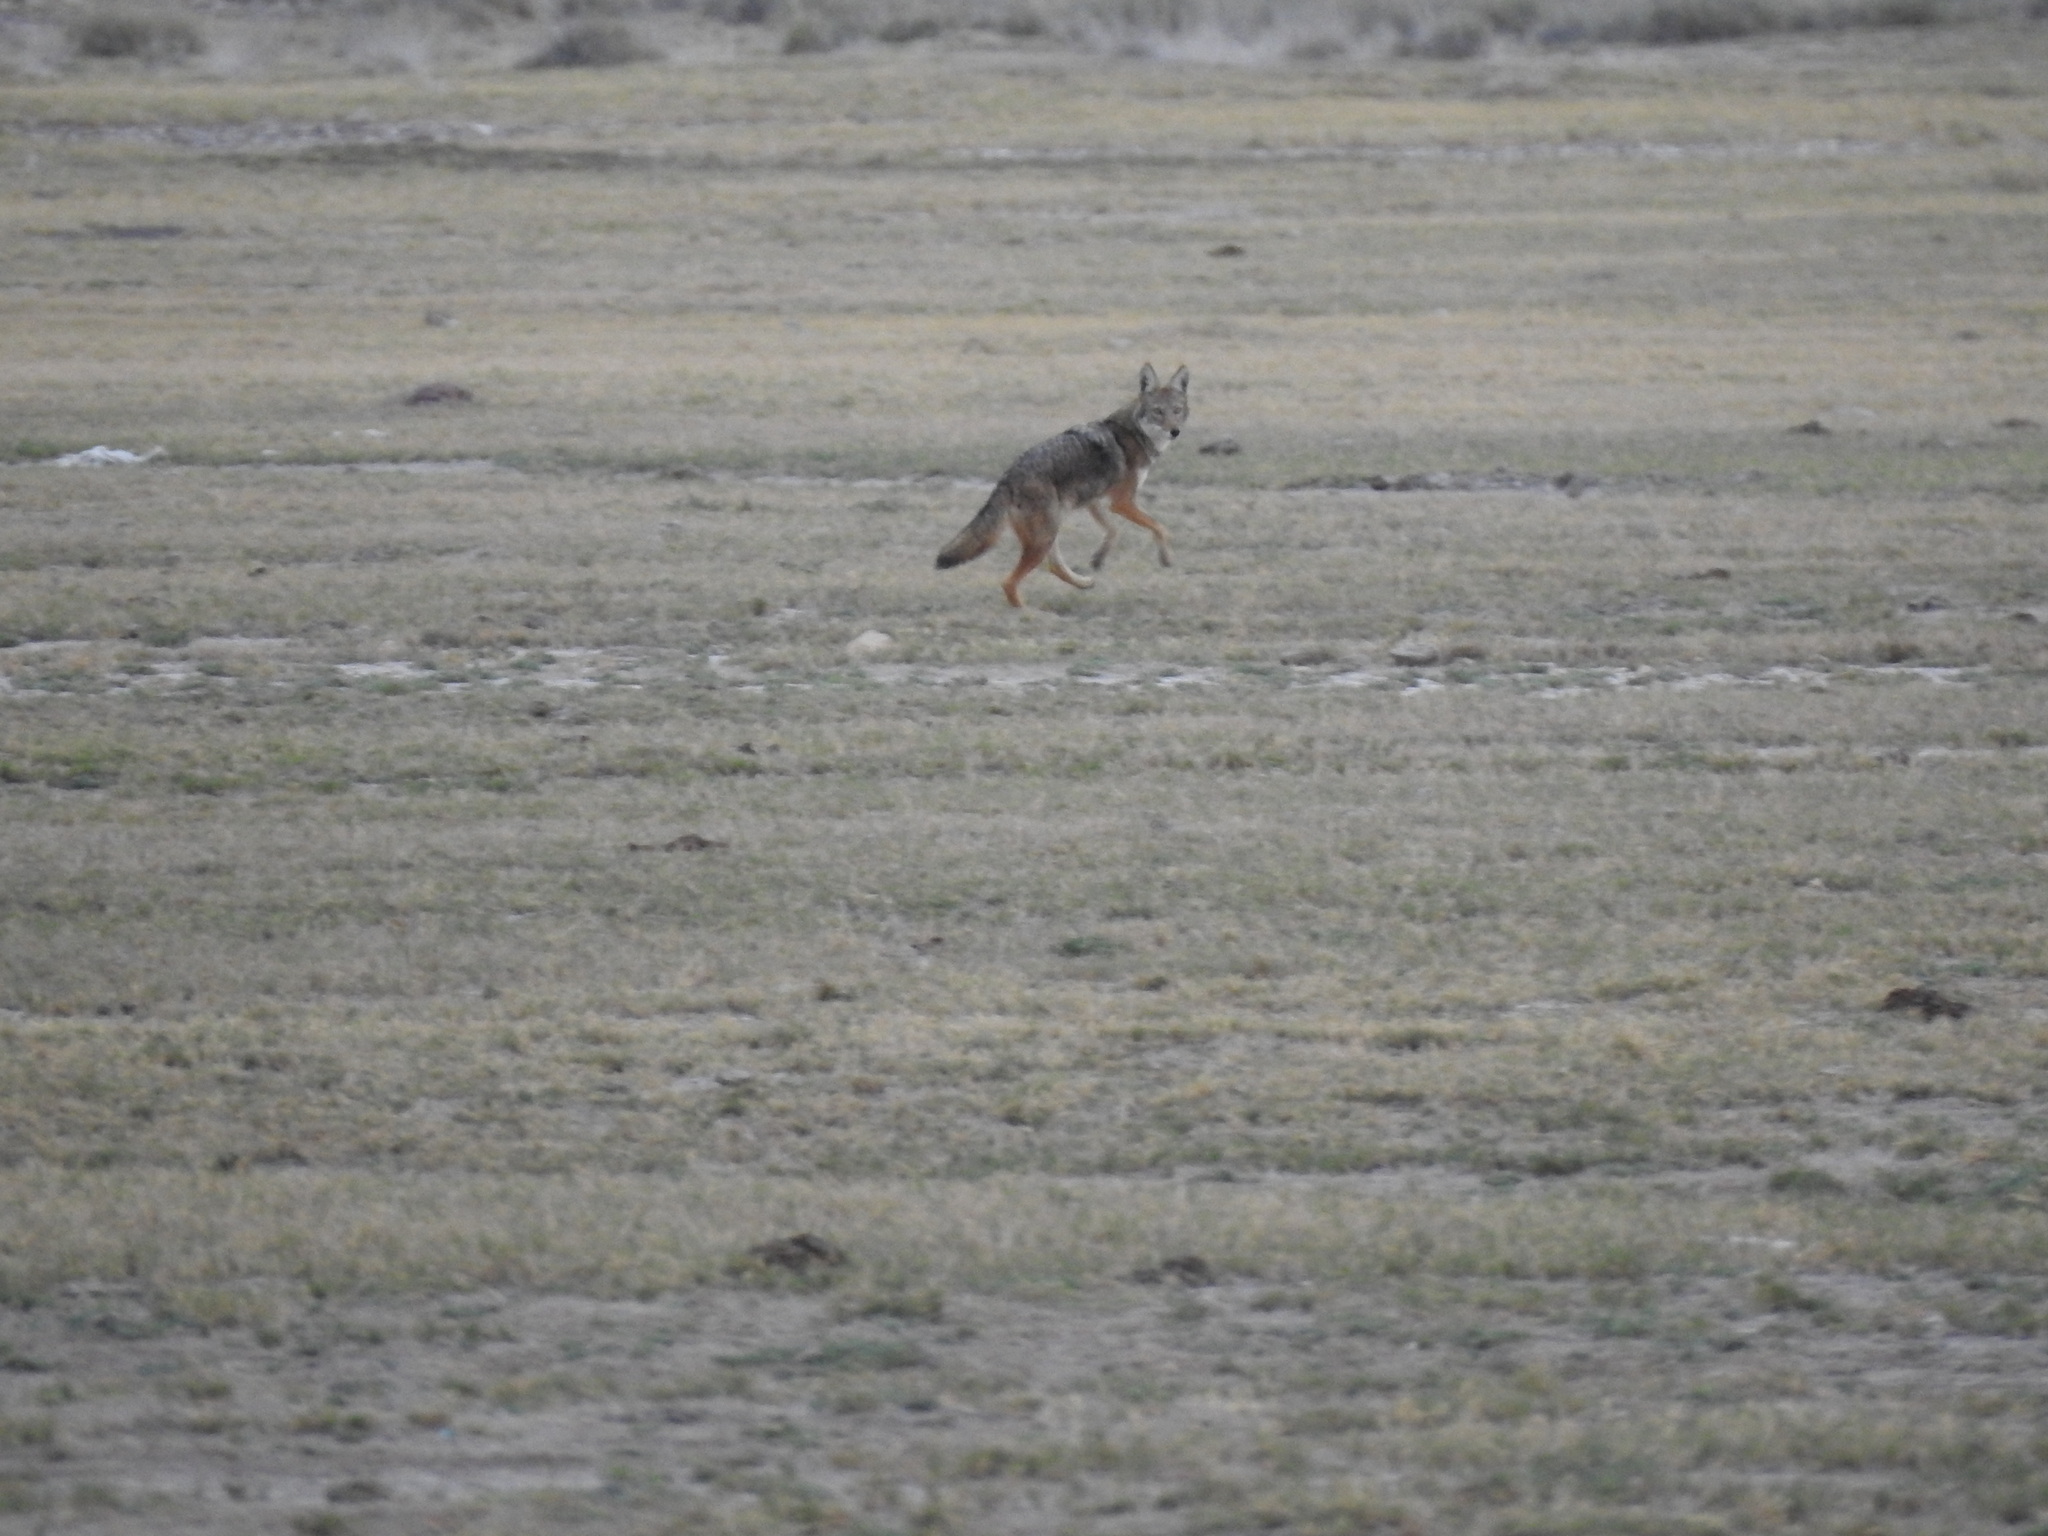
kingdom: Animalia
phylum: Chordata
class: Mammalia
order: Carnivora
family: Canidae
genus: Canis
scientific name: Canis latrans
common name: Coyote
